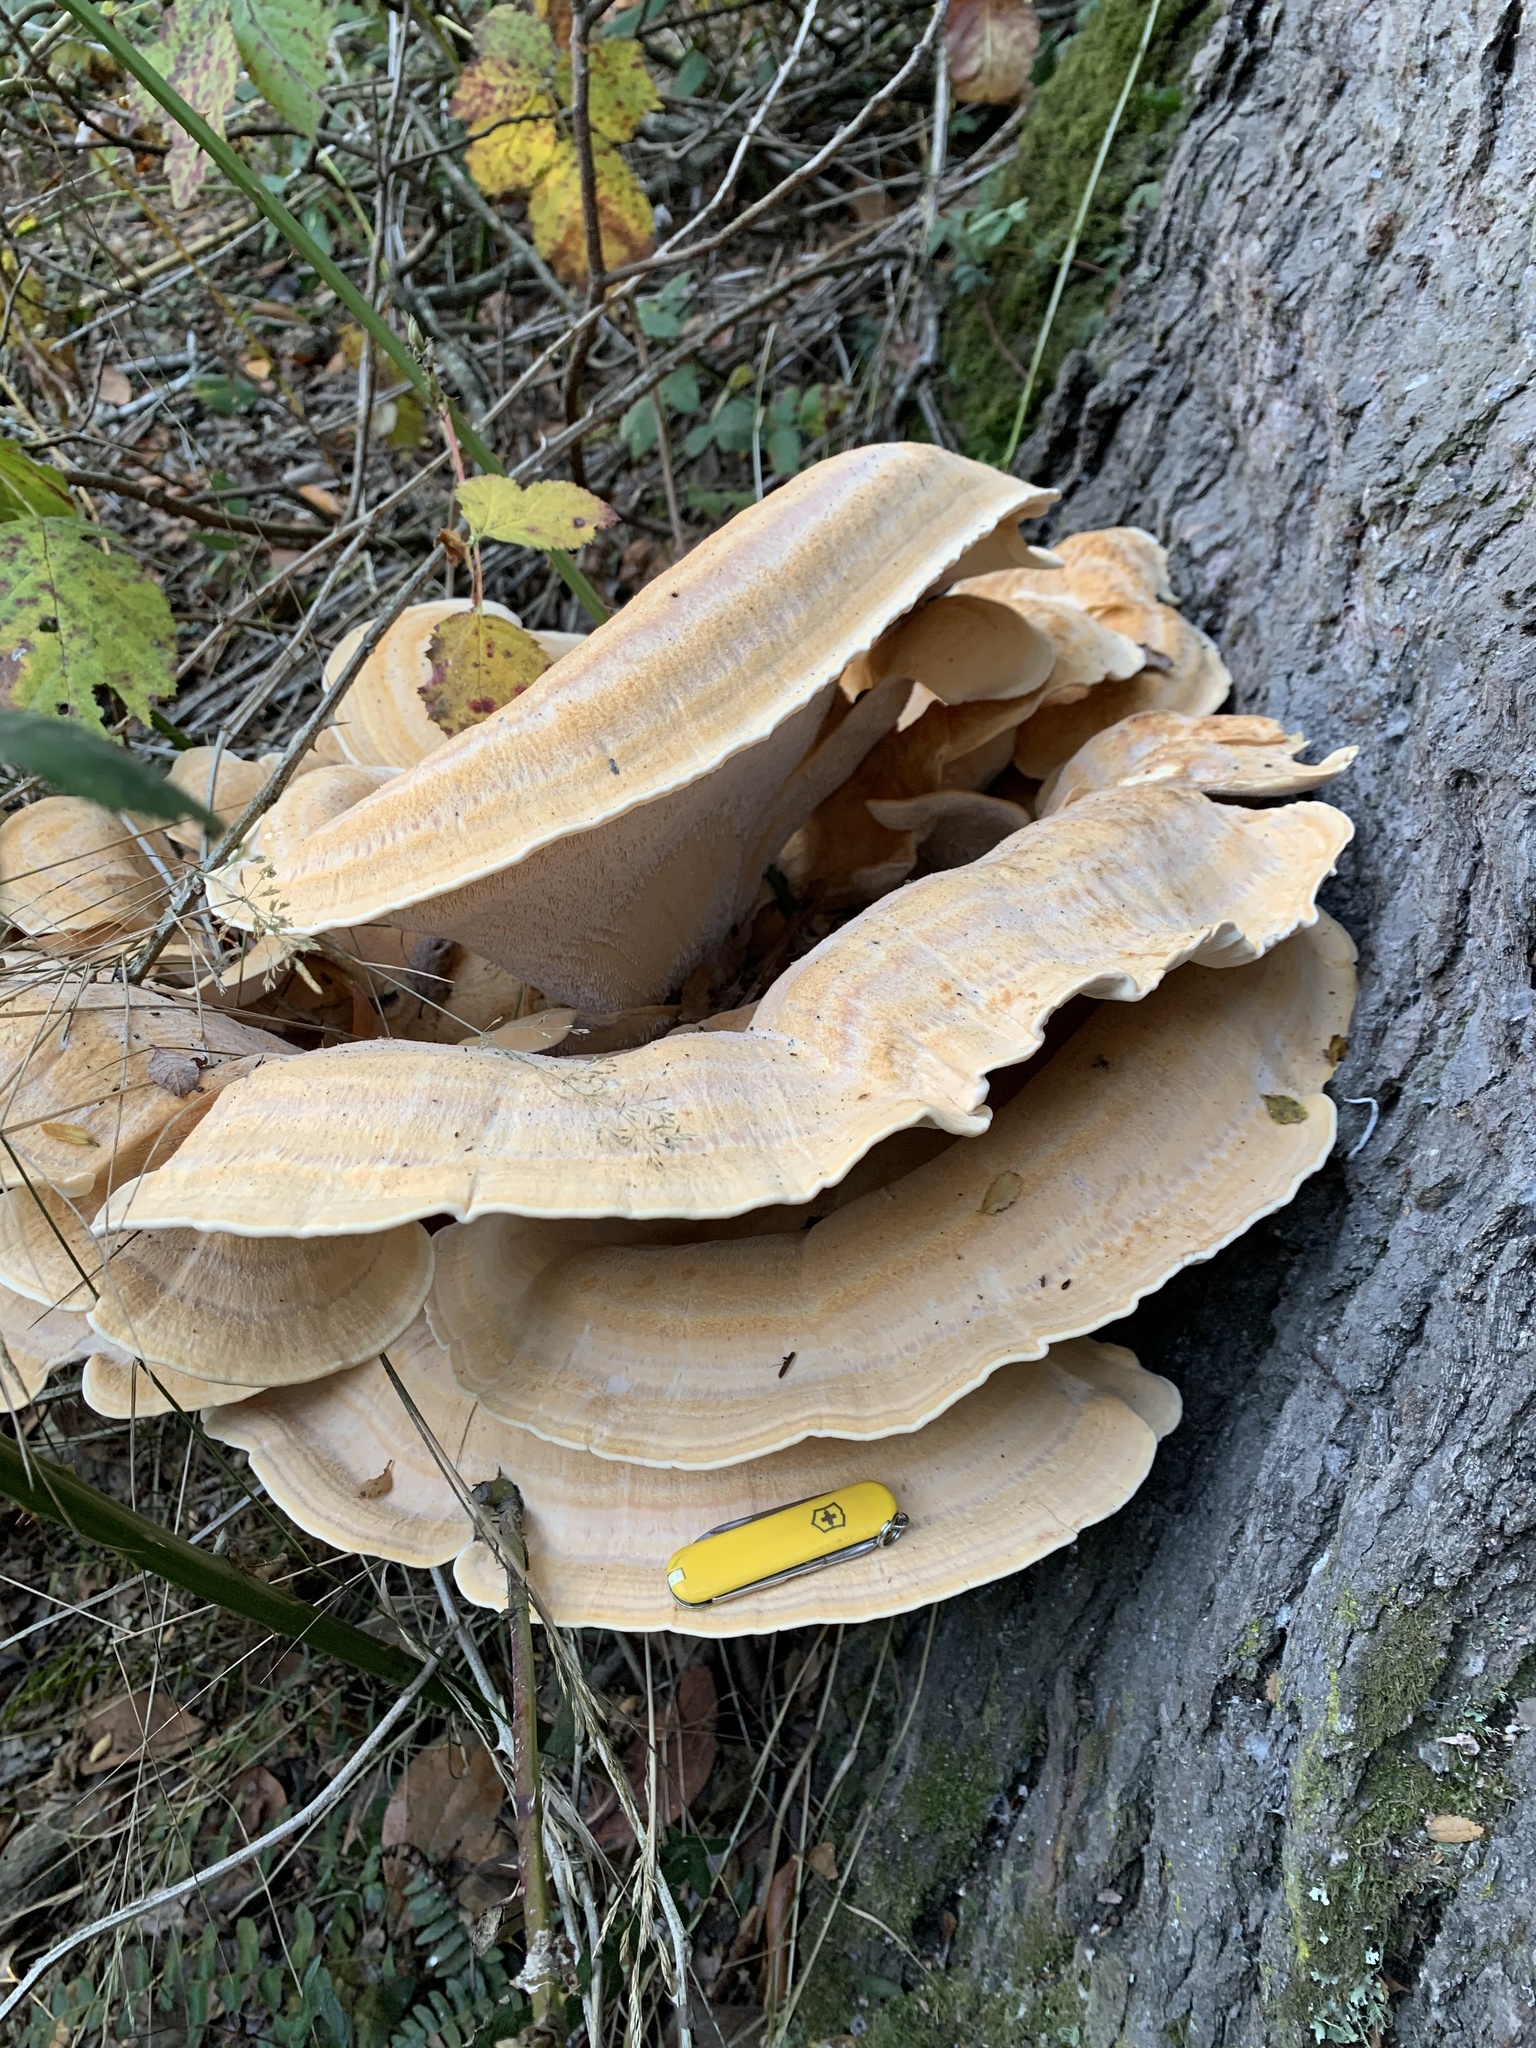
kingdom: Fungi
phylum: Basidiomycota
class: Agaricomycetes
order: Russulales
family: Bondarzewiaceae
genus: Bondarzewia
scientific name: Bondarzewia guaitecasensis
